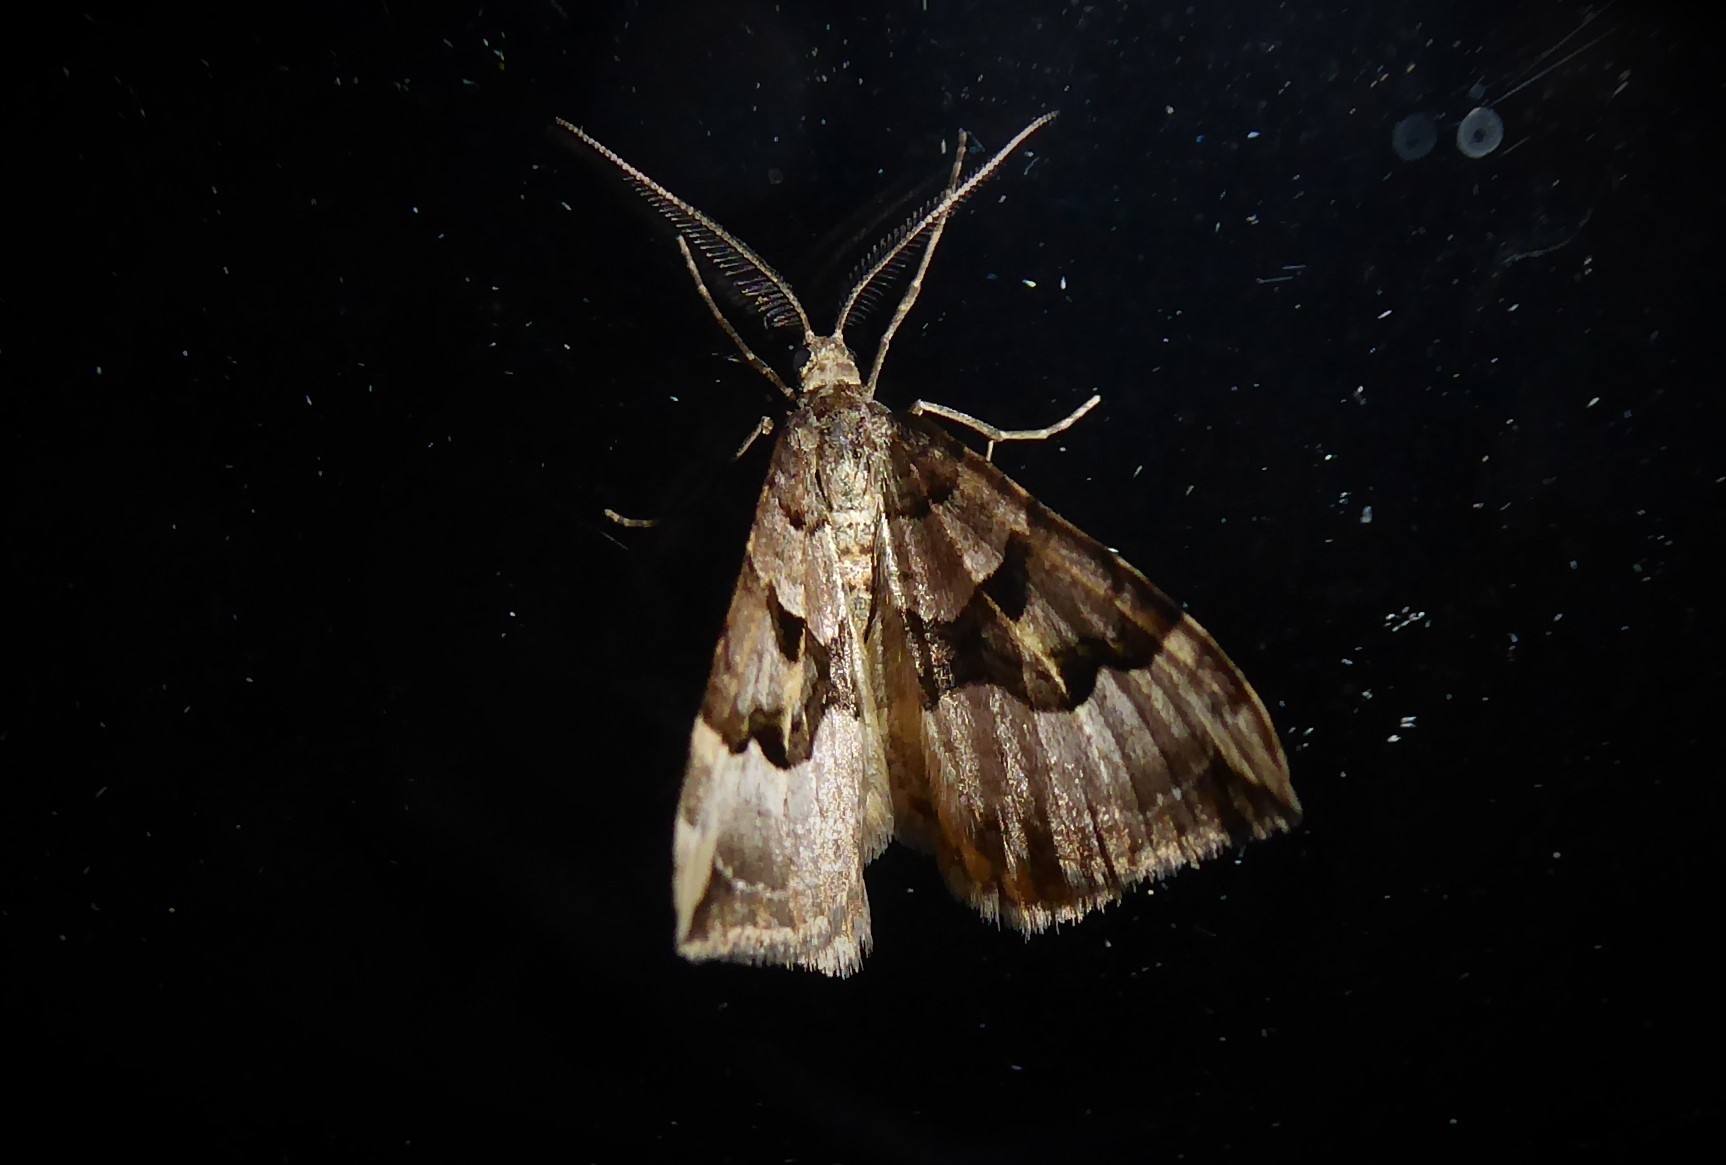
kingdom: Animalia
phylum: Arthropoda
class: Insecta
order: Lepidoptera
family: Geometridae
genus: Xanthorhoe
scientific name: Xanthorhoe semifissata
